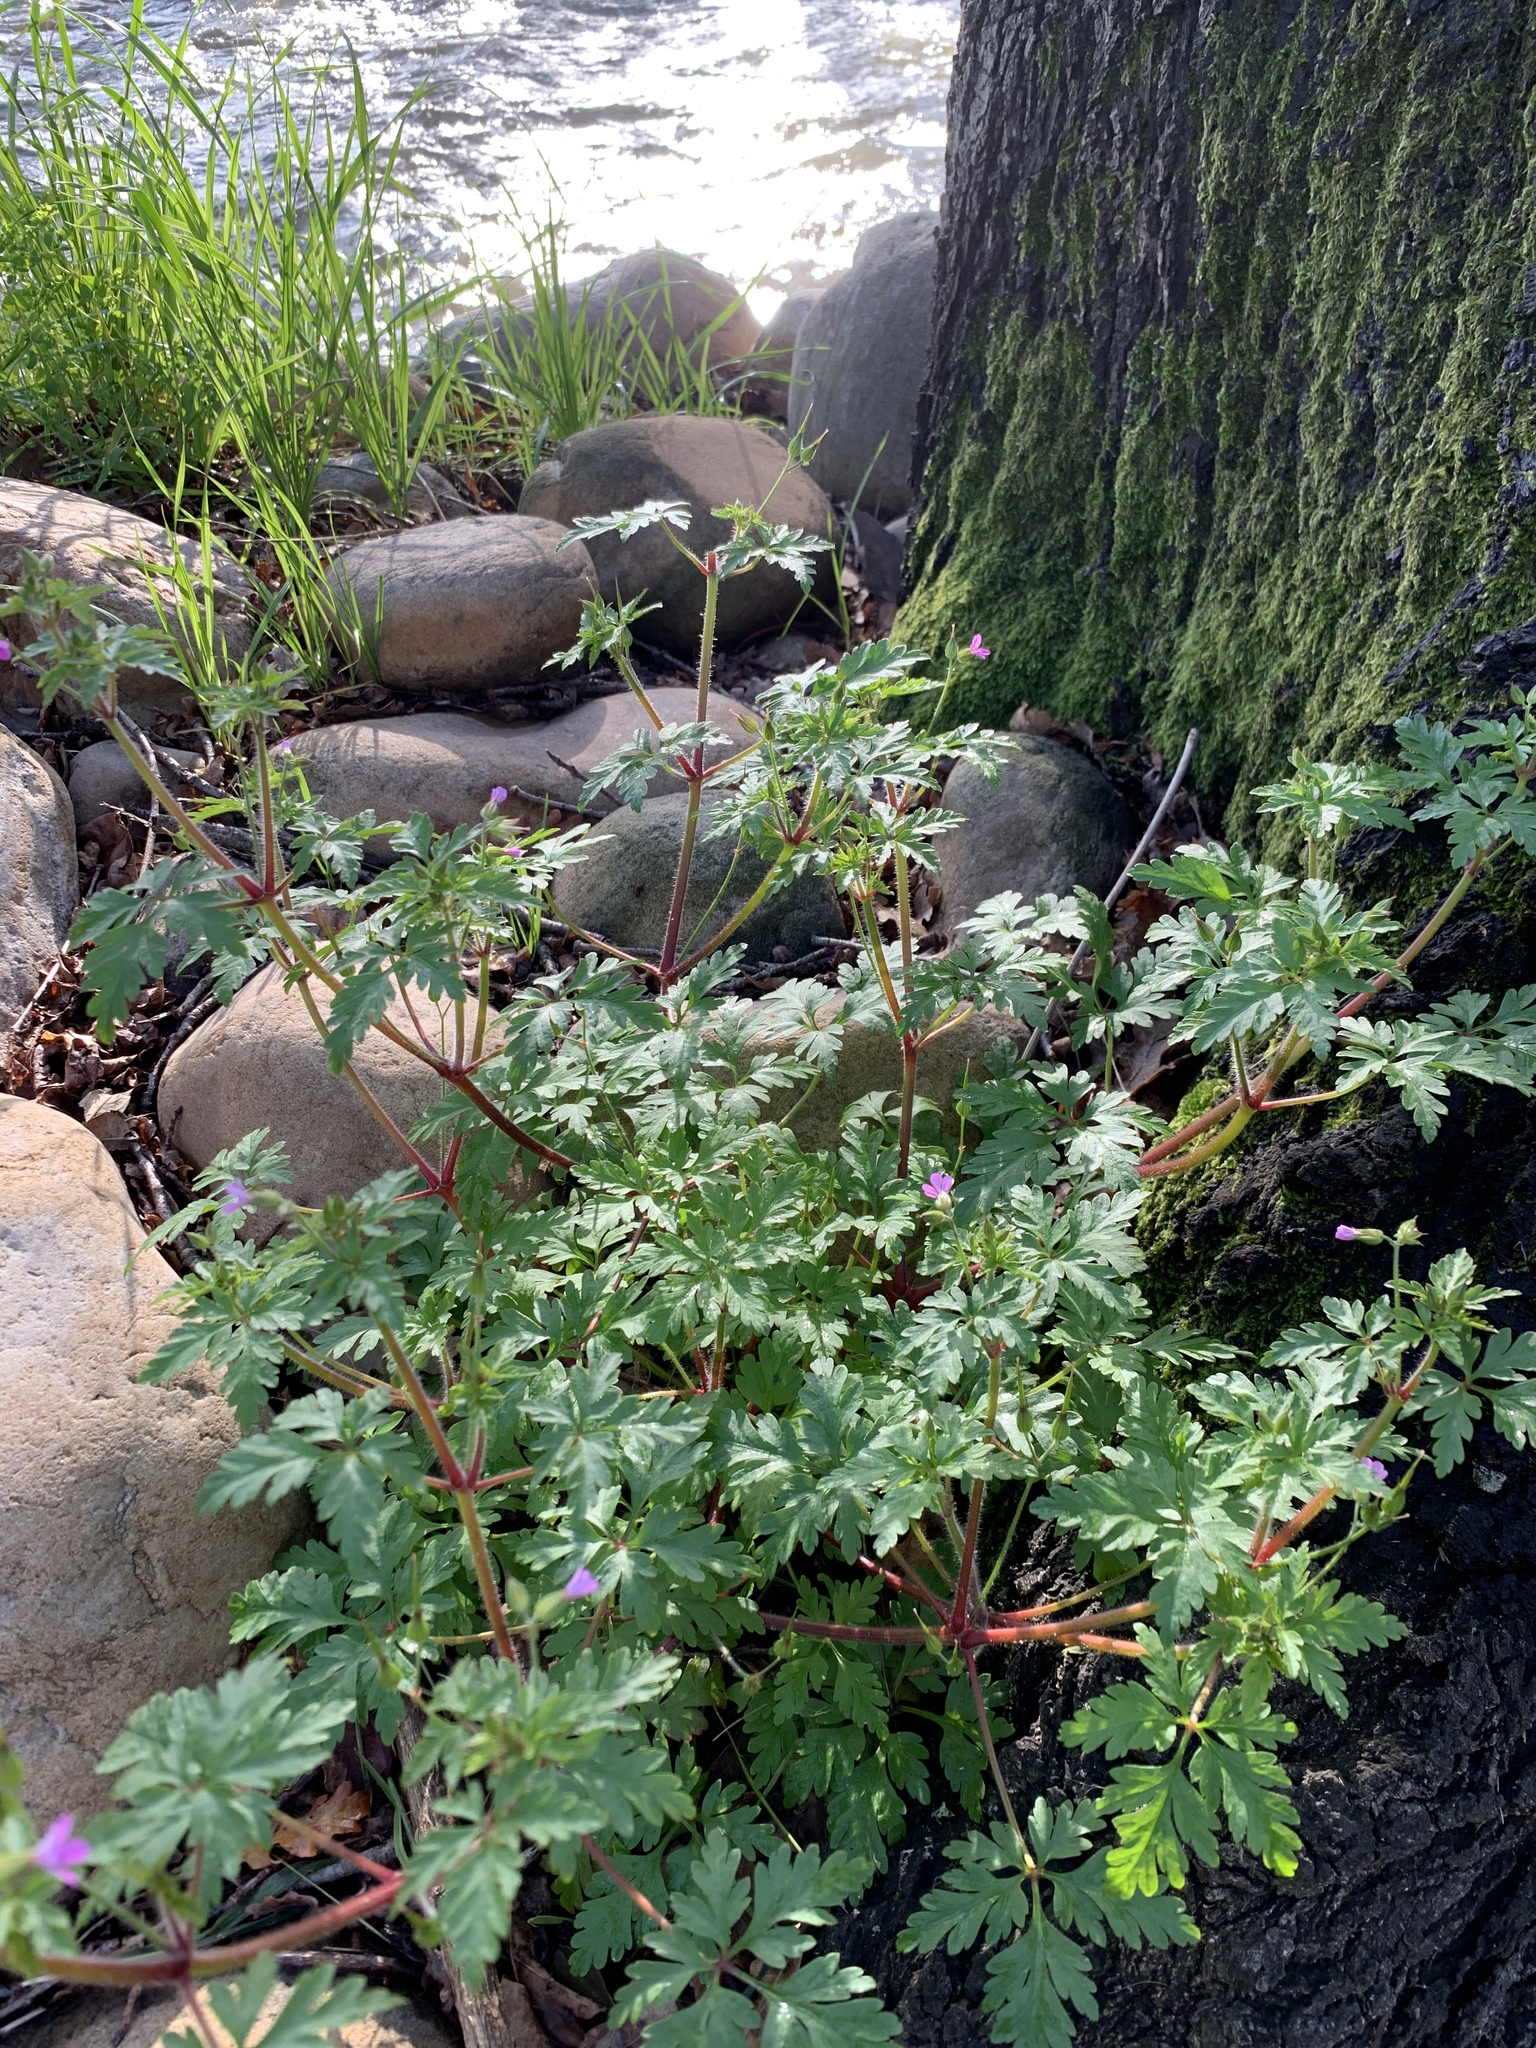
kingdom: Plantae
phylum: Tracheophyta
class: Magnoliopsida
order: Geraniales
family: Geraniaceae
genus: Geranium
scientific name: Geranium purpureum
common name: Little-robin
